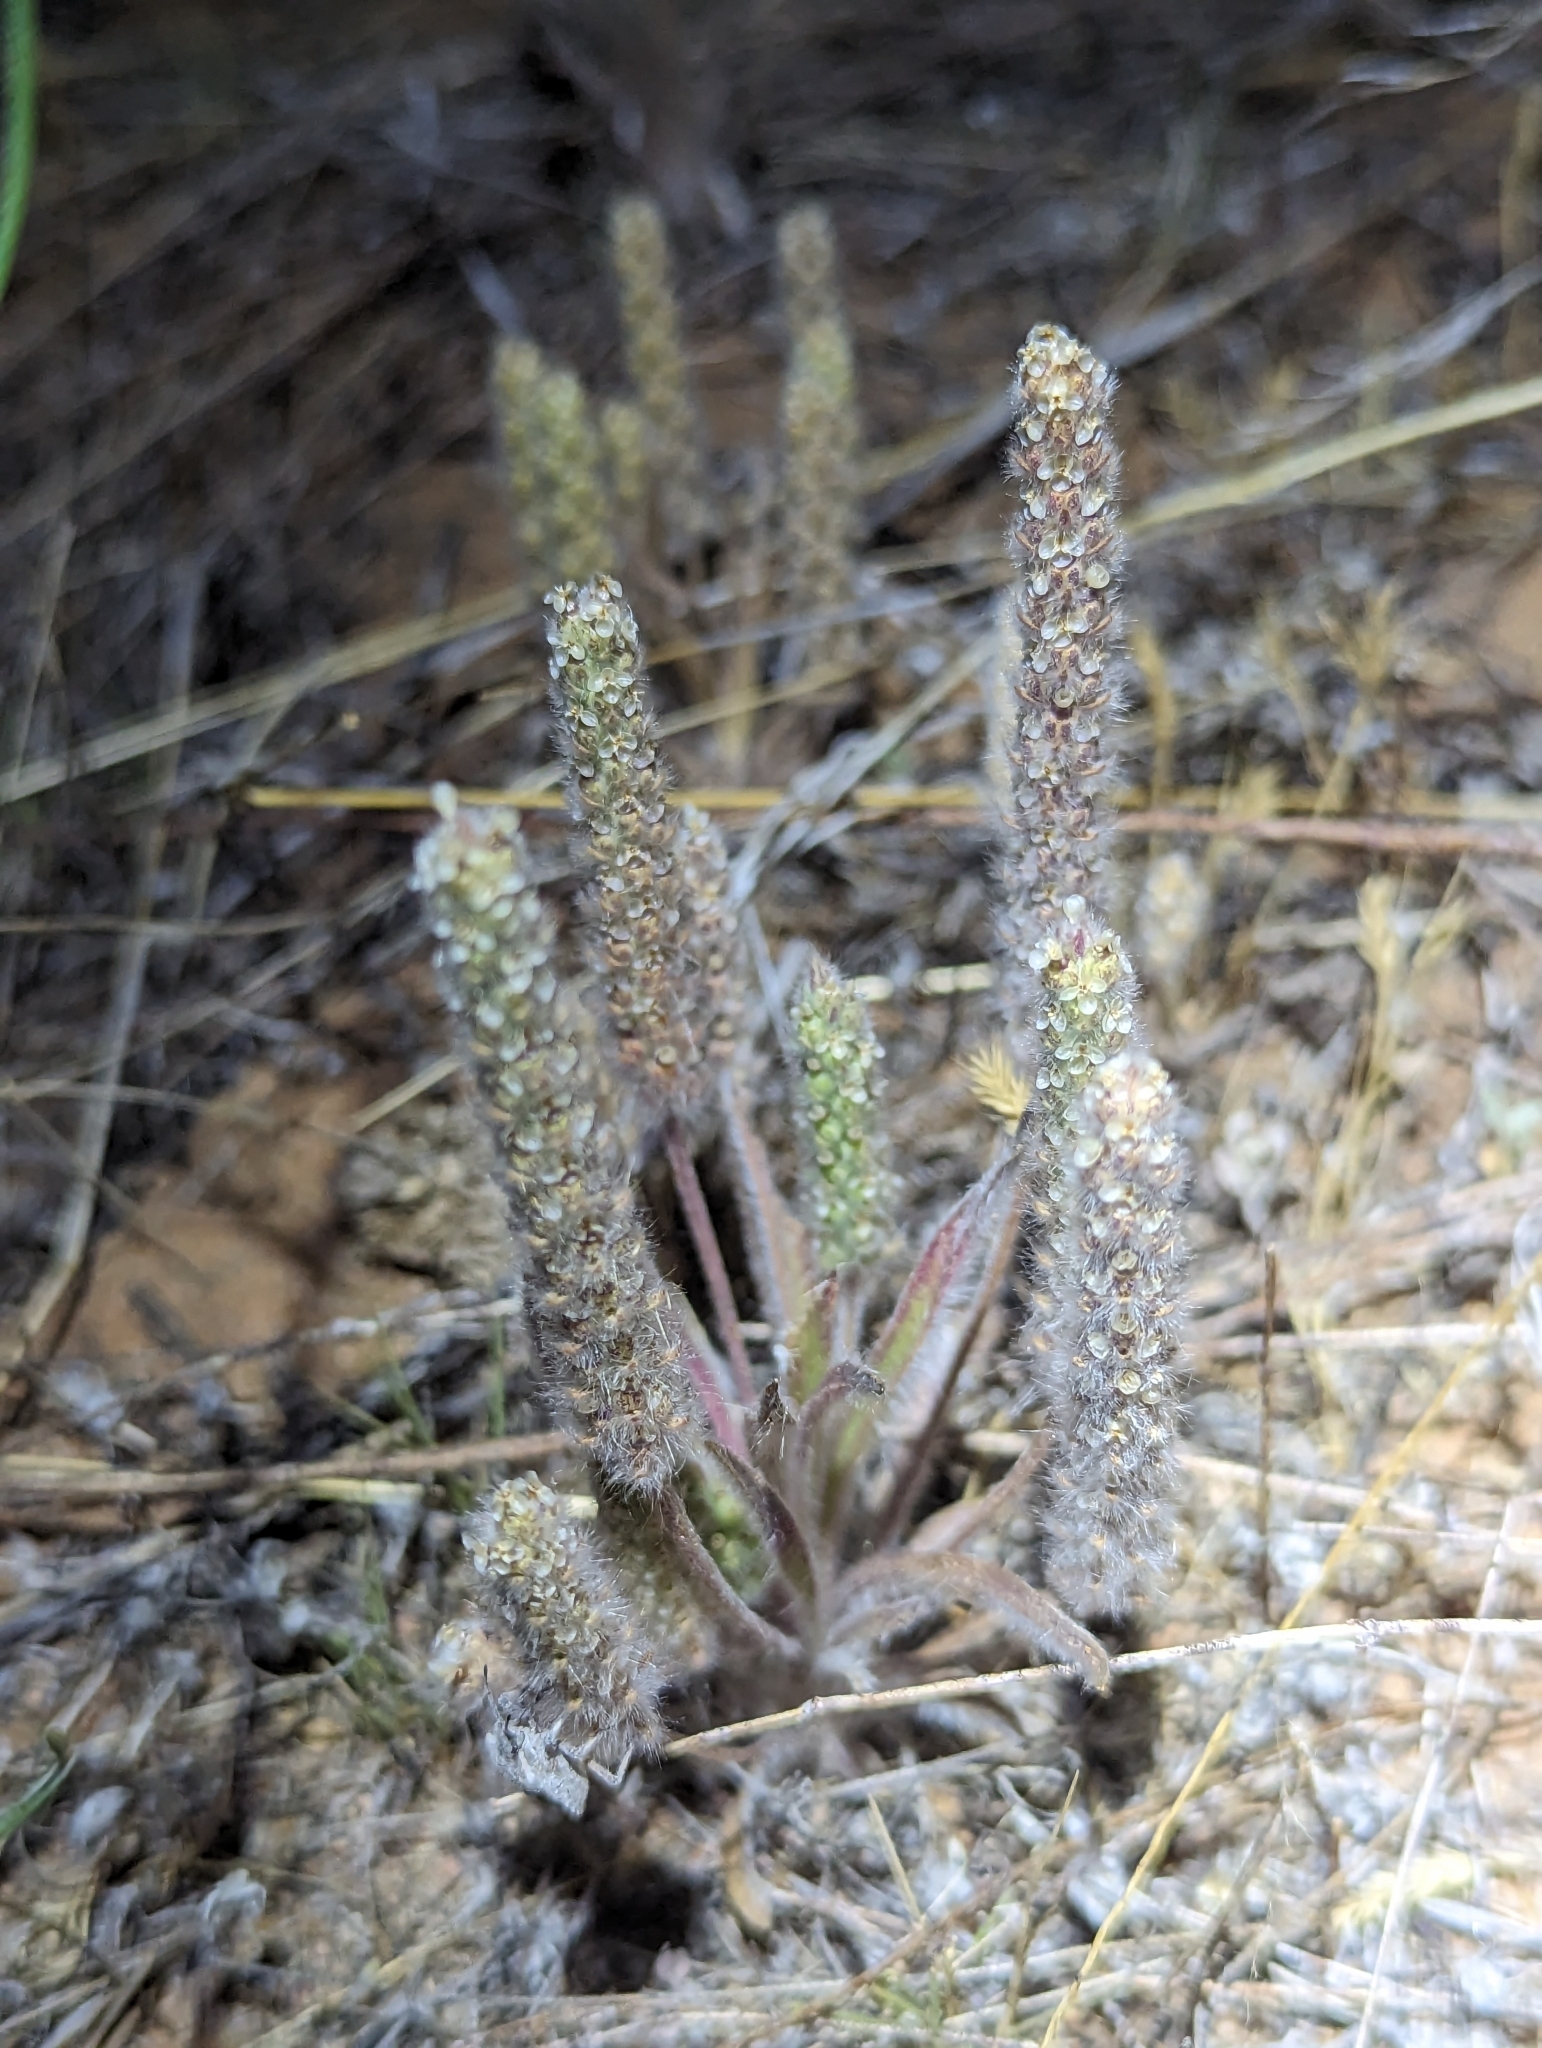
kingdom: Plantae
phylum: Tracheophyta
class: Magnoliopsida
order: Lamiales
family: Plantaginaceae
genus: Plantago
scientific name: Plantago patagonica
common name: Patagonia indian-wheat
